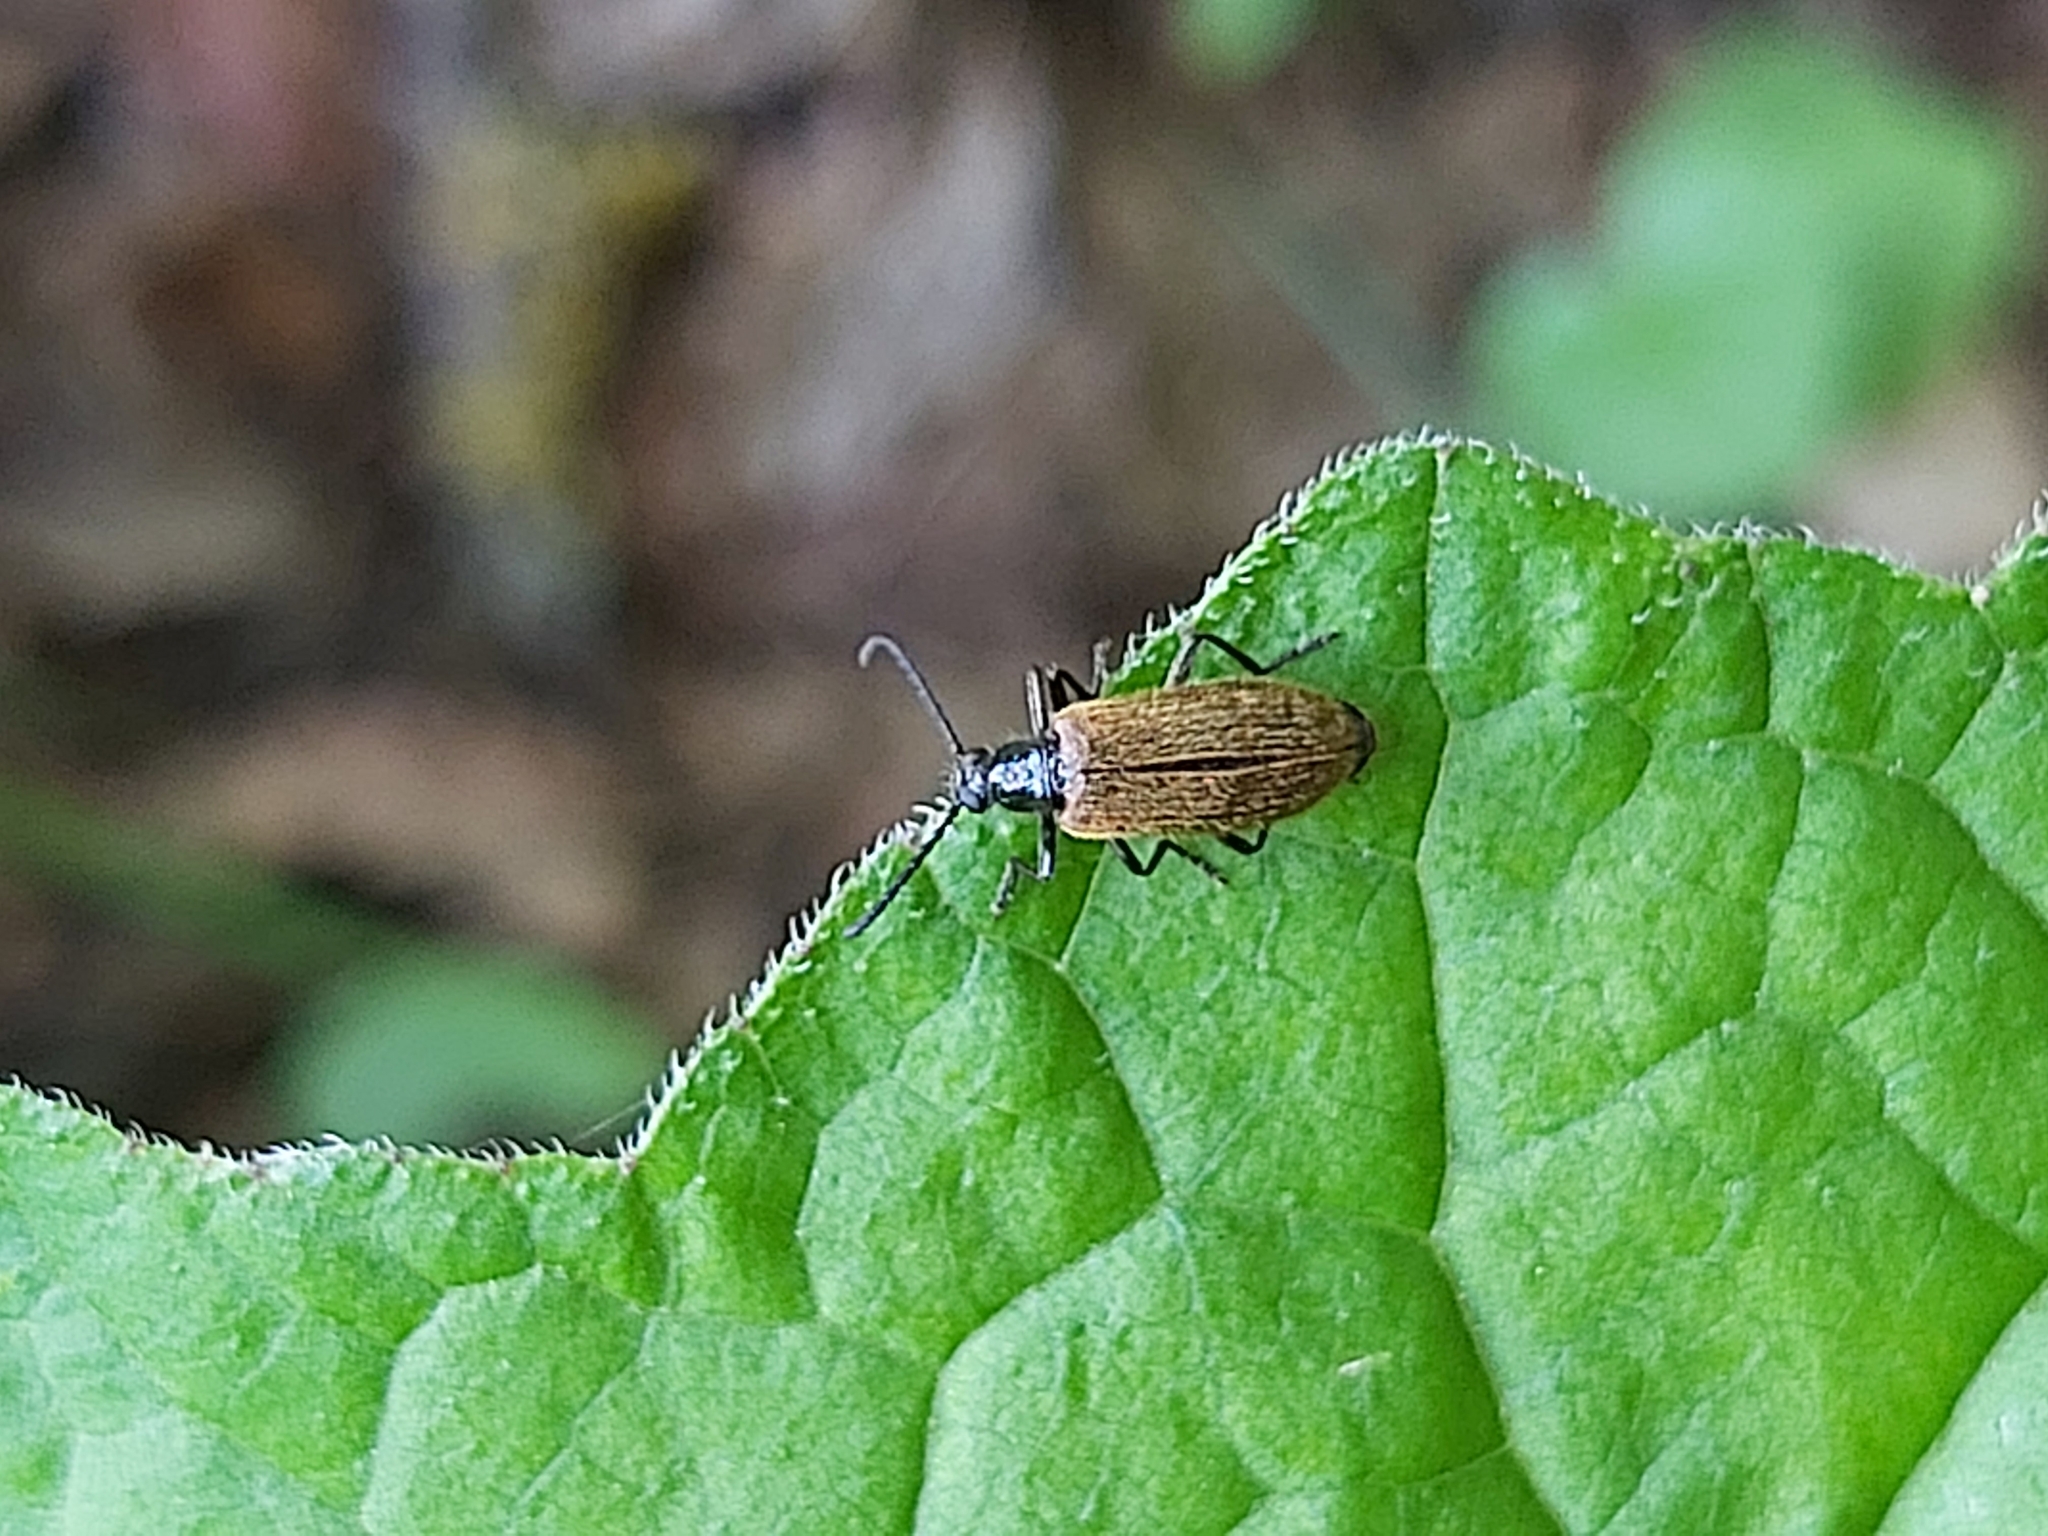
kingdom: Animalia
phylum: Arthropoda
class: Insecta
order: Coleoptera
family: Tenebrionidae
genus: Lagria
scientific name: Lagria hirta
